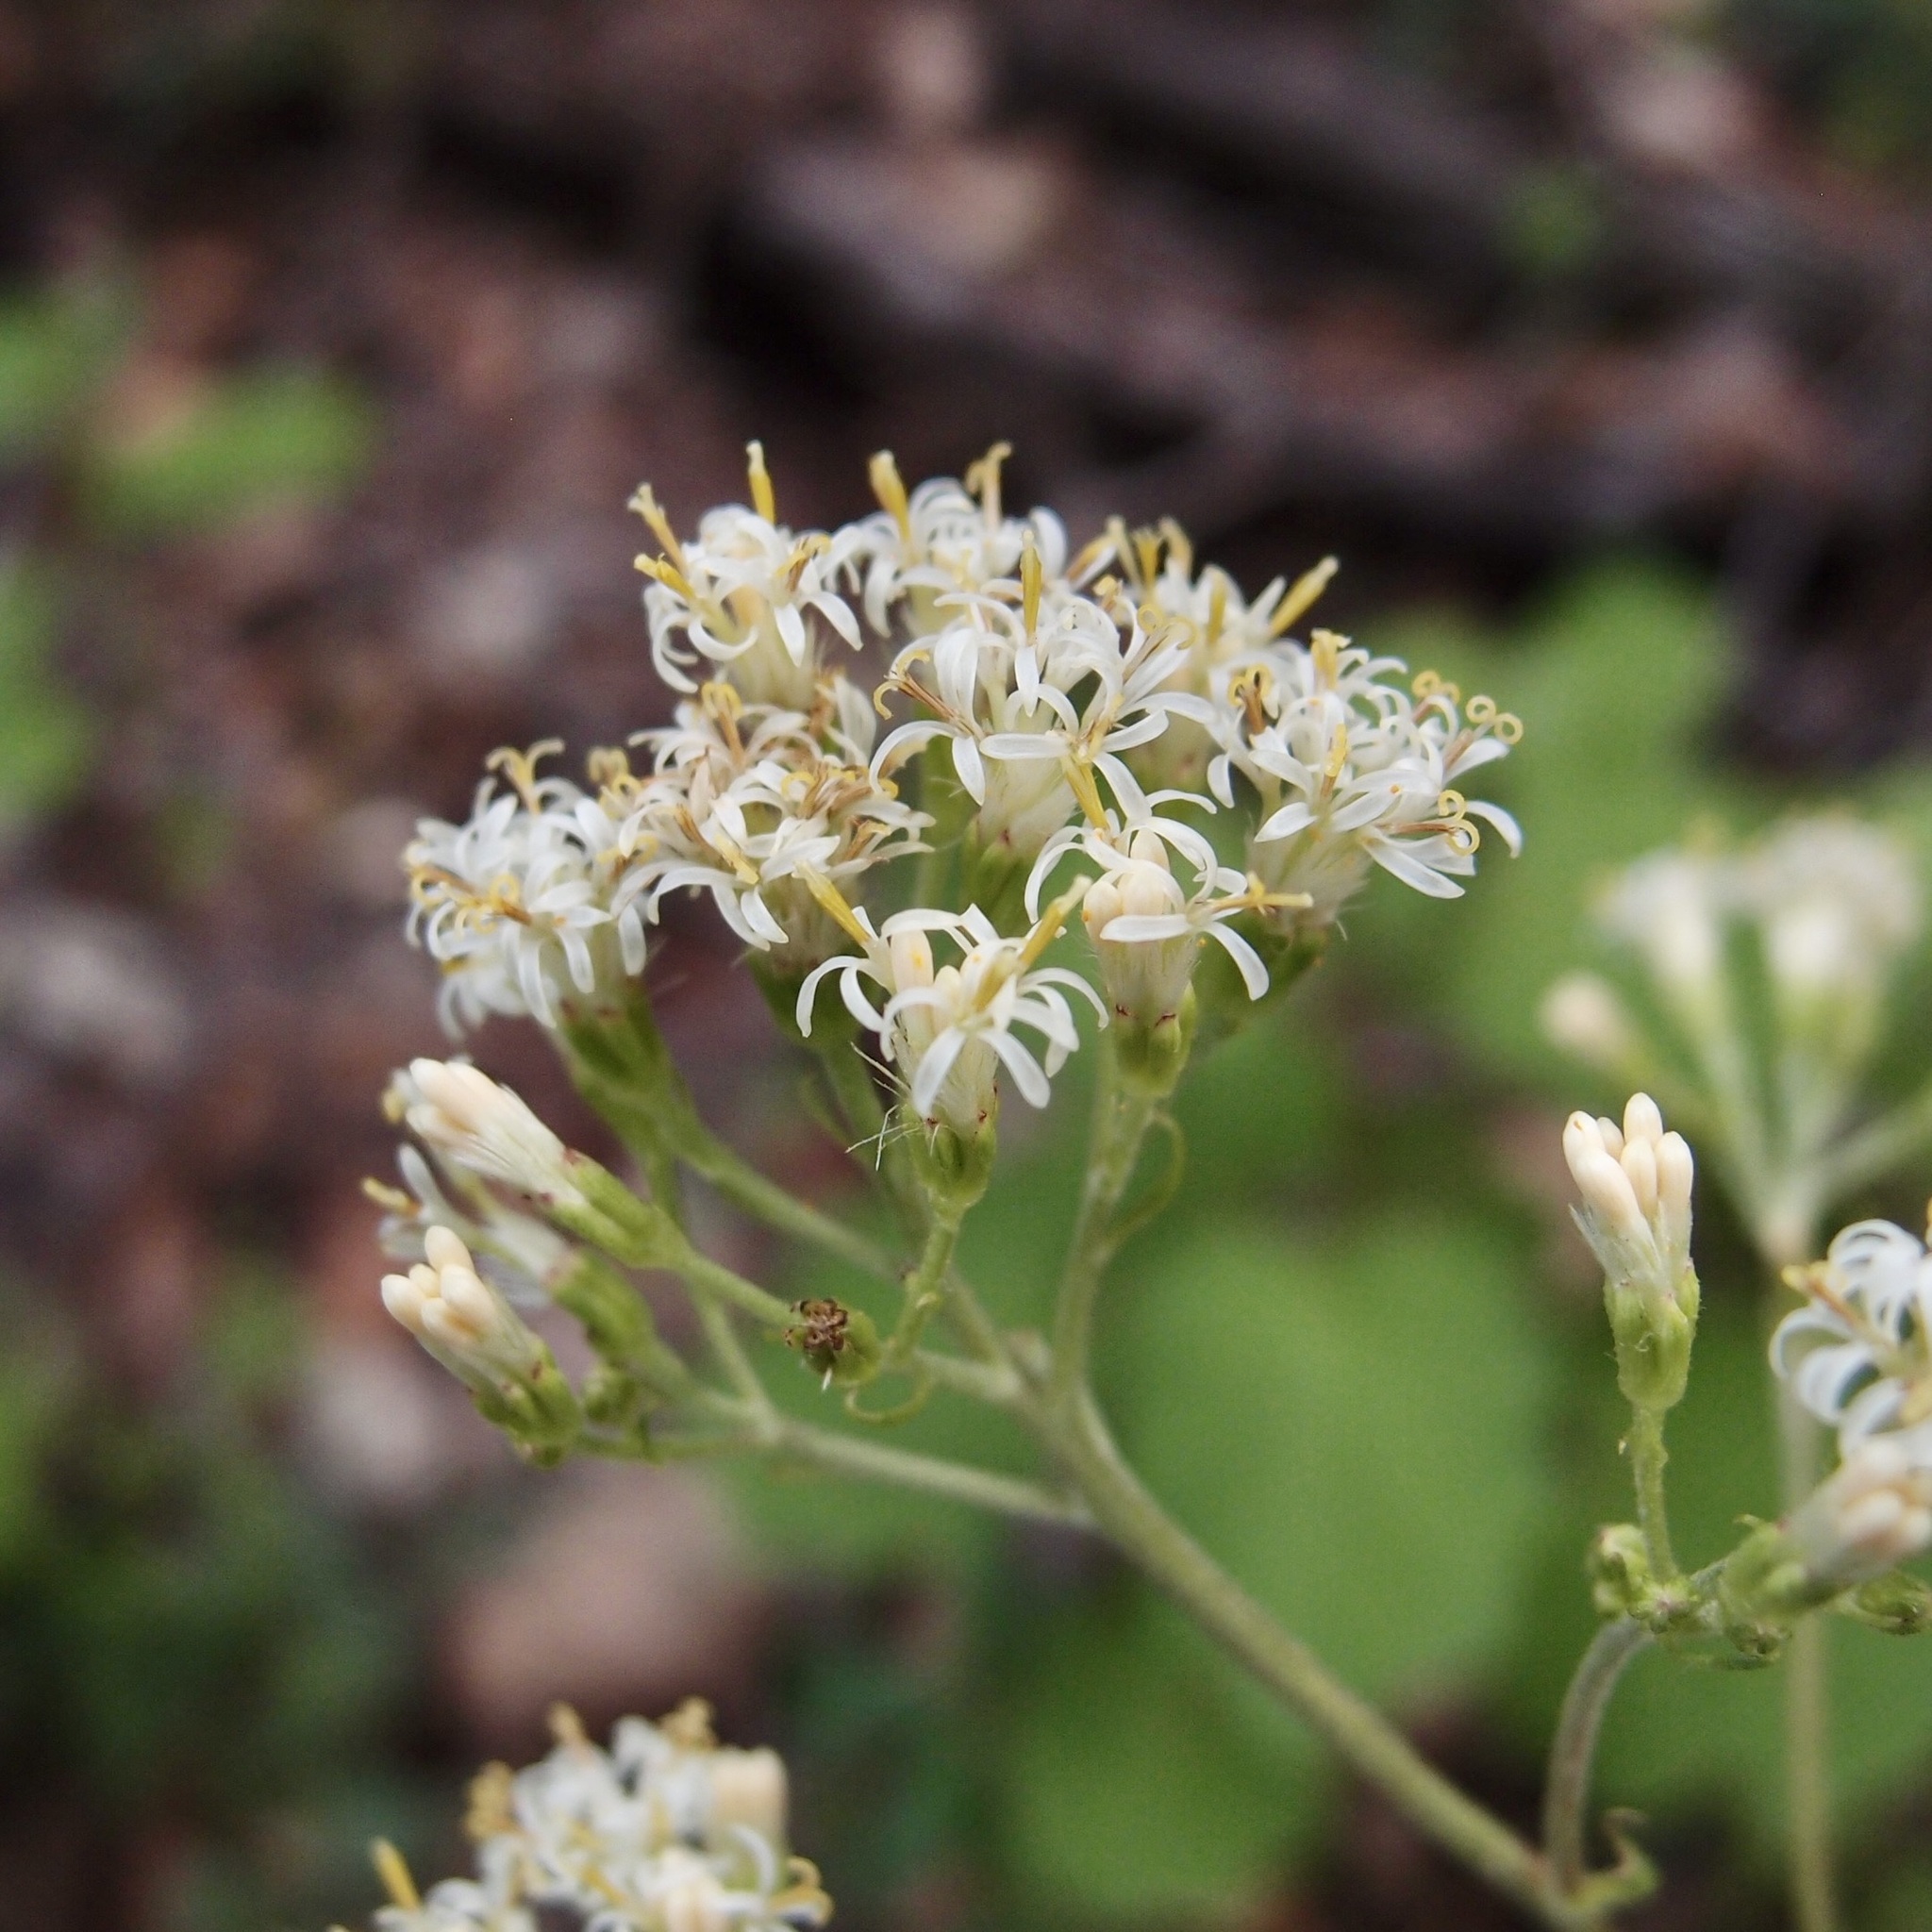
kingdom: Plantae
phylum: Tracheophyta
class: Magnoliopsida
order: Asterales
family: Asteraceae
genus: Psacalium
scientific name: Psacalium decompositum
